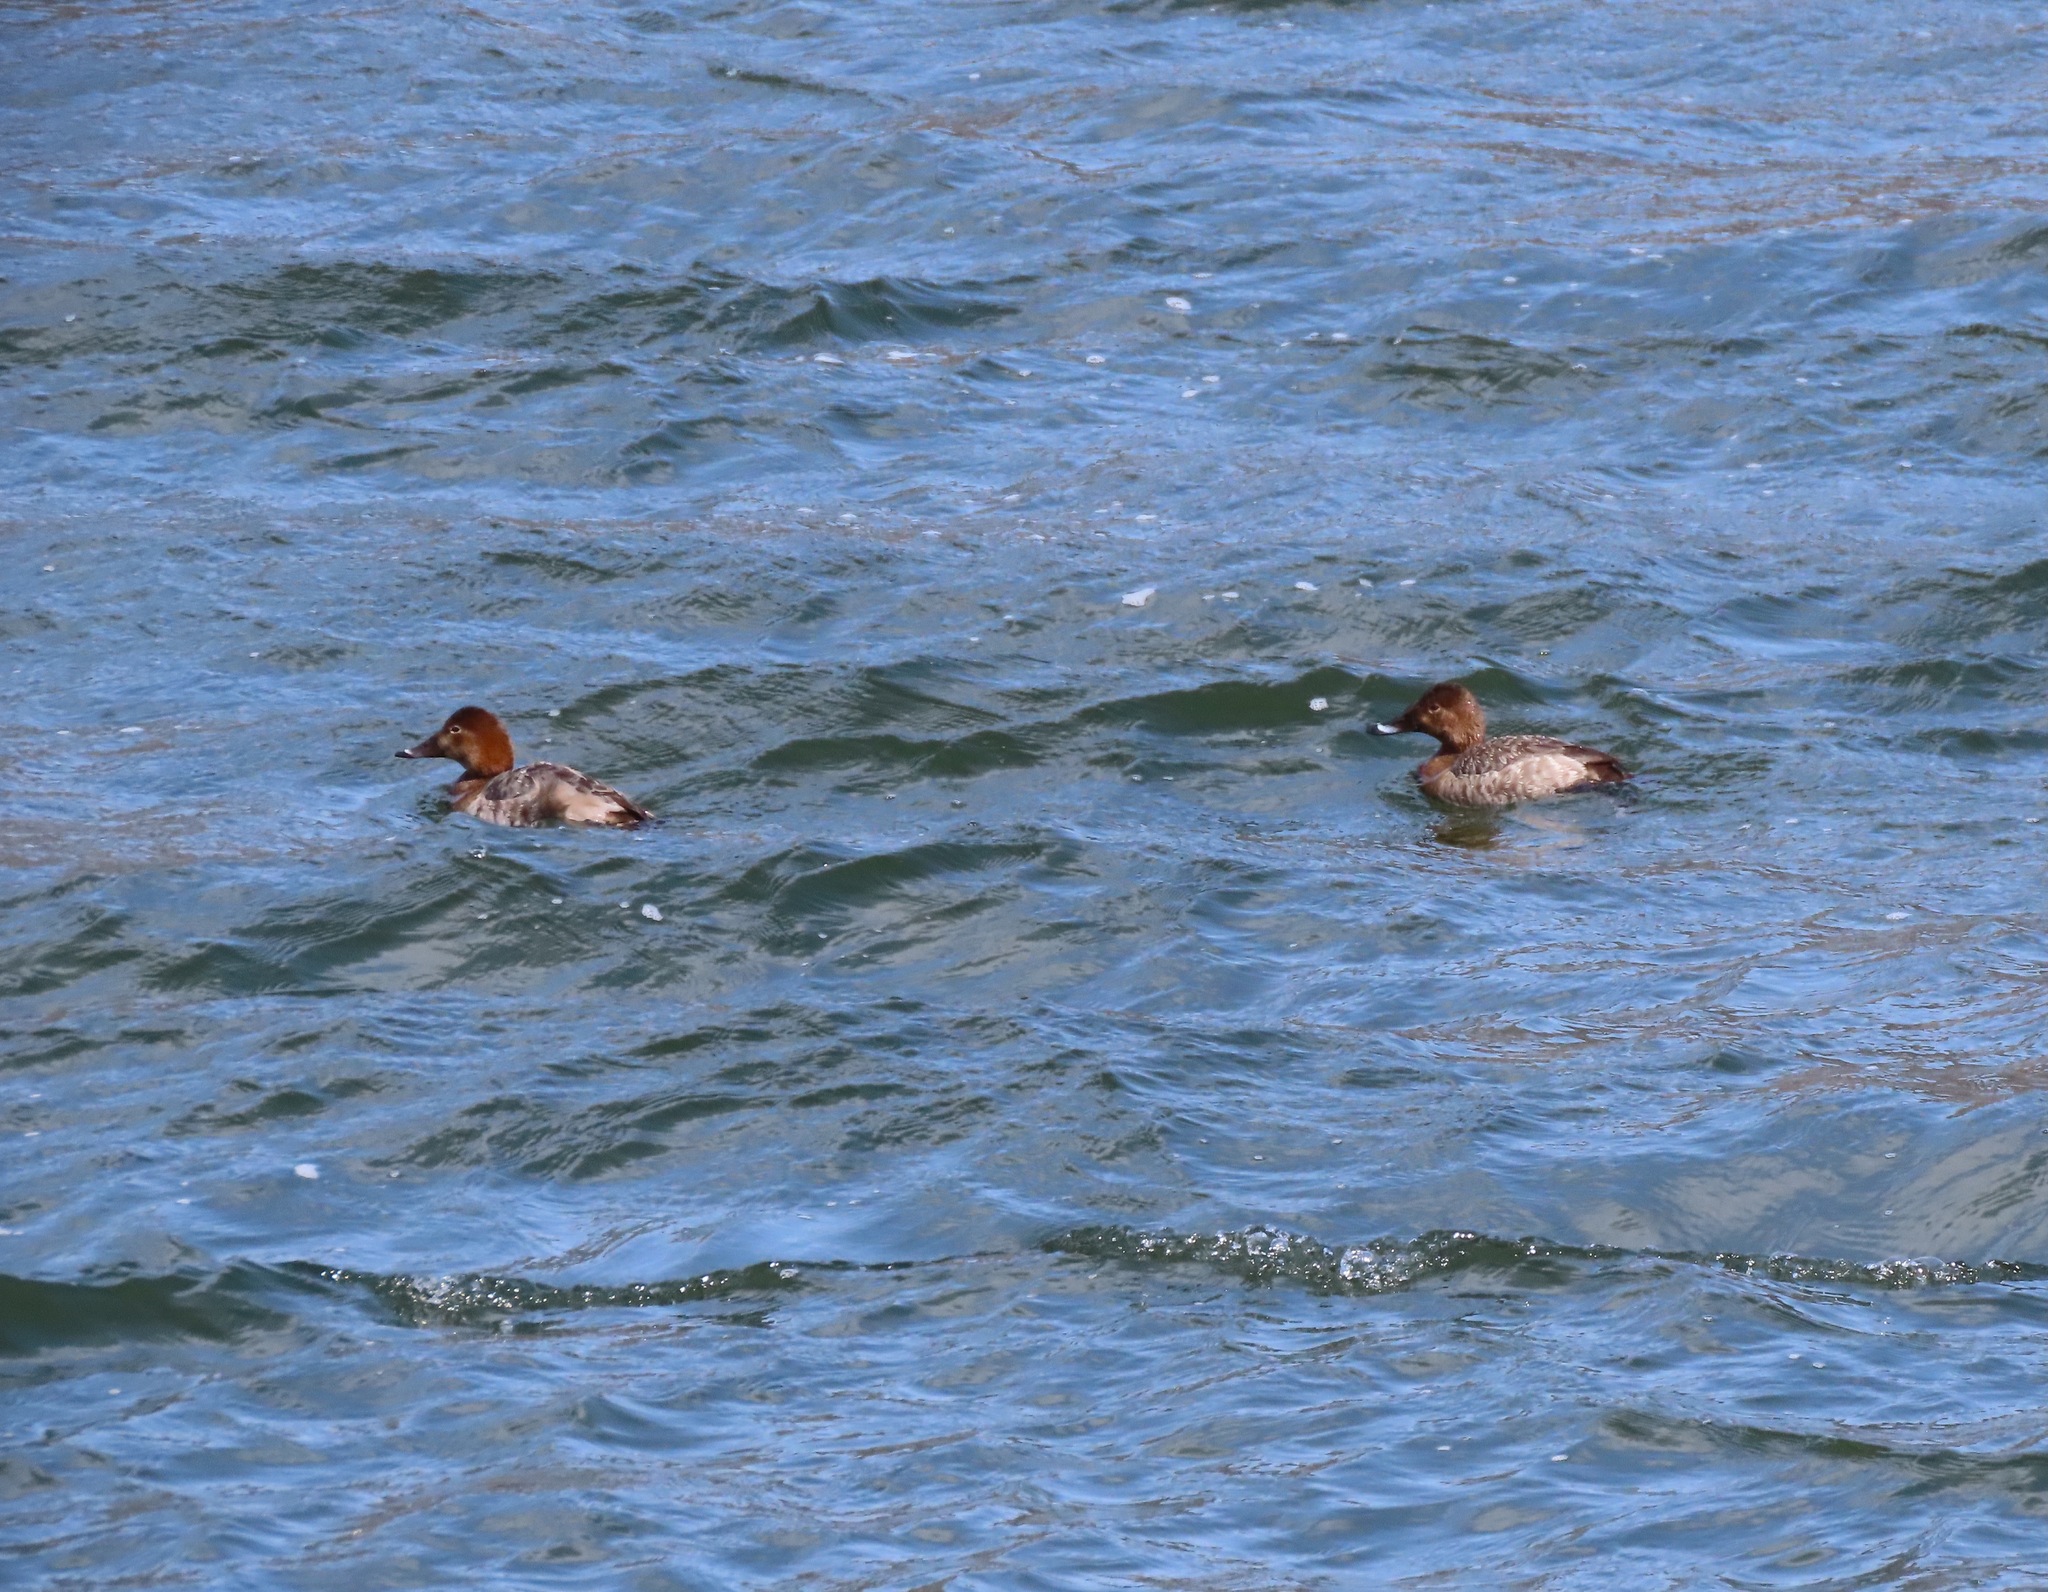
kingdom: Animalia
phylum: Chordata
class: Aves
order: Anseriformes
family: Anatidae
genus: Aythya
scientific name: Aythya ferina
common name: Common pochard
